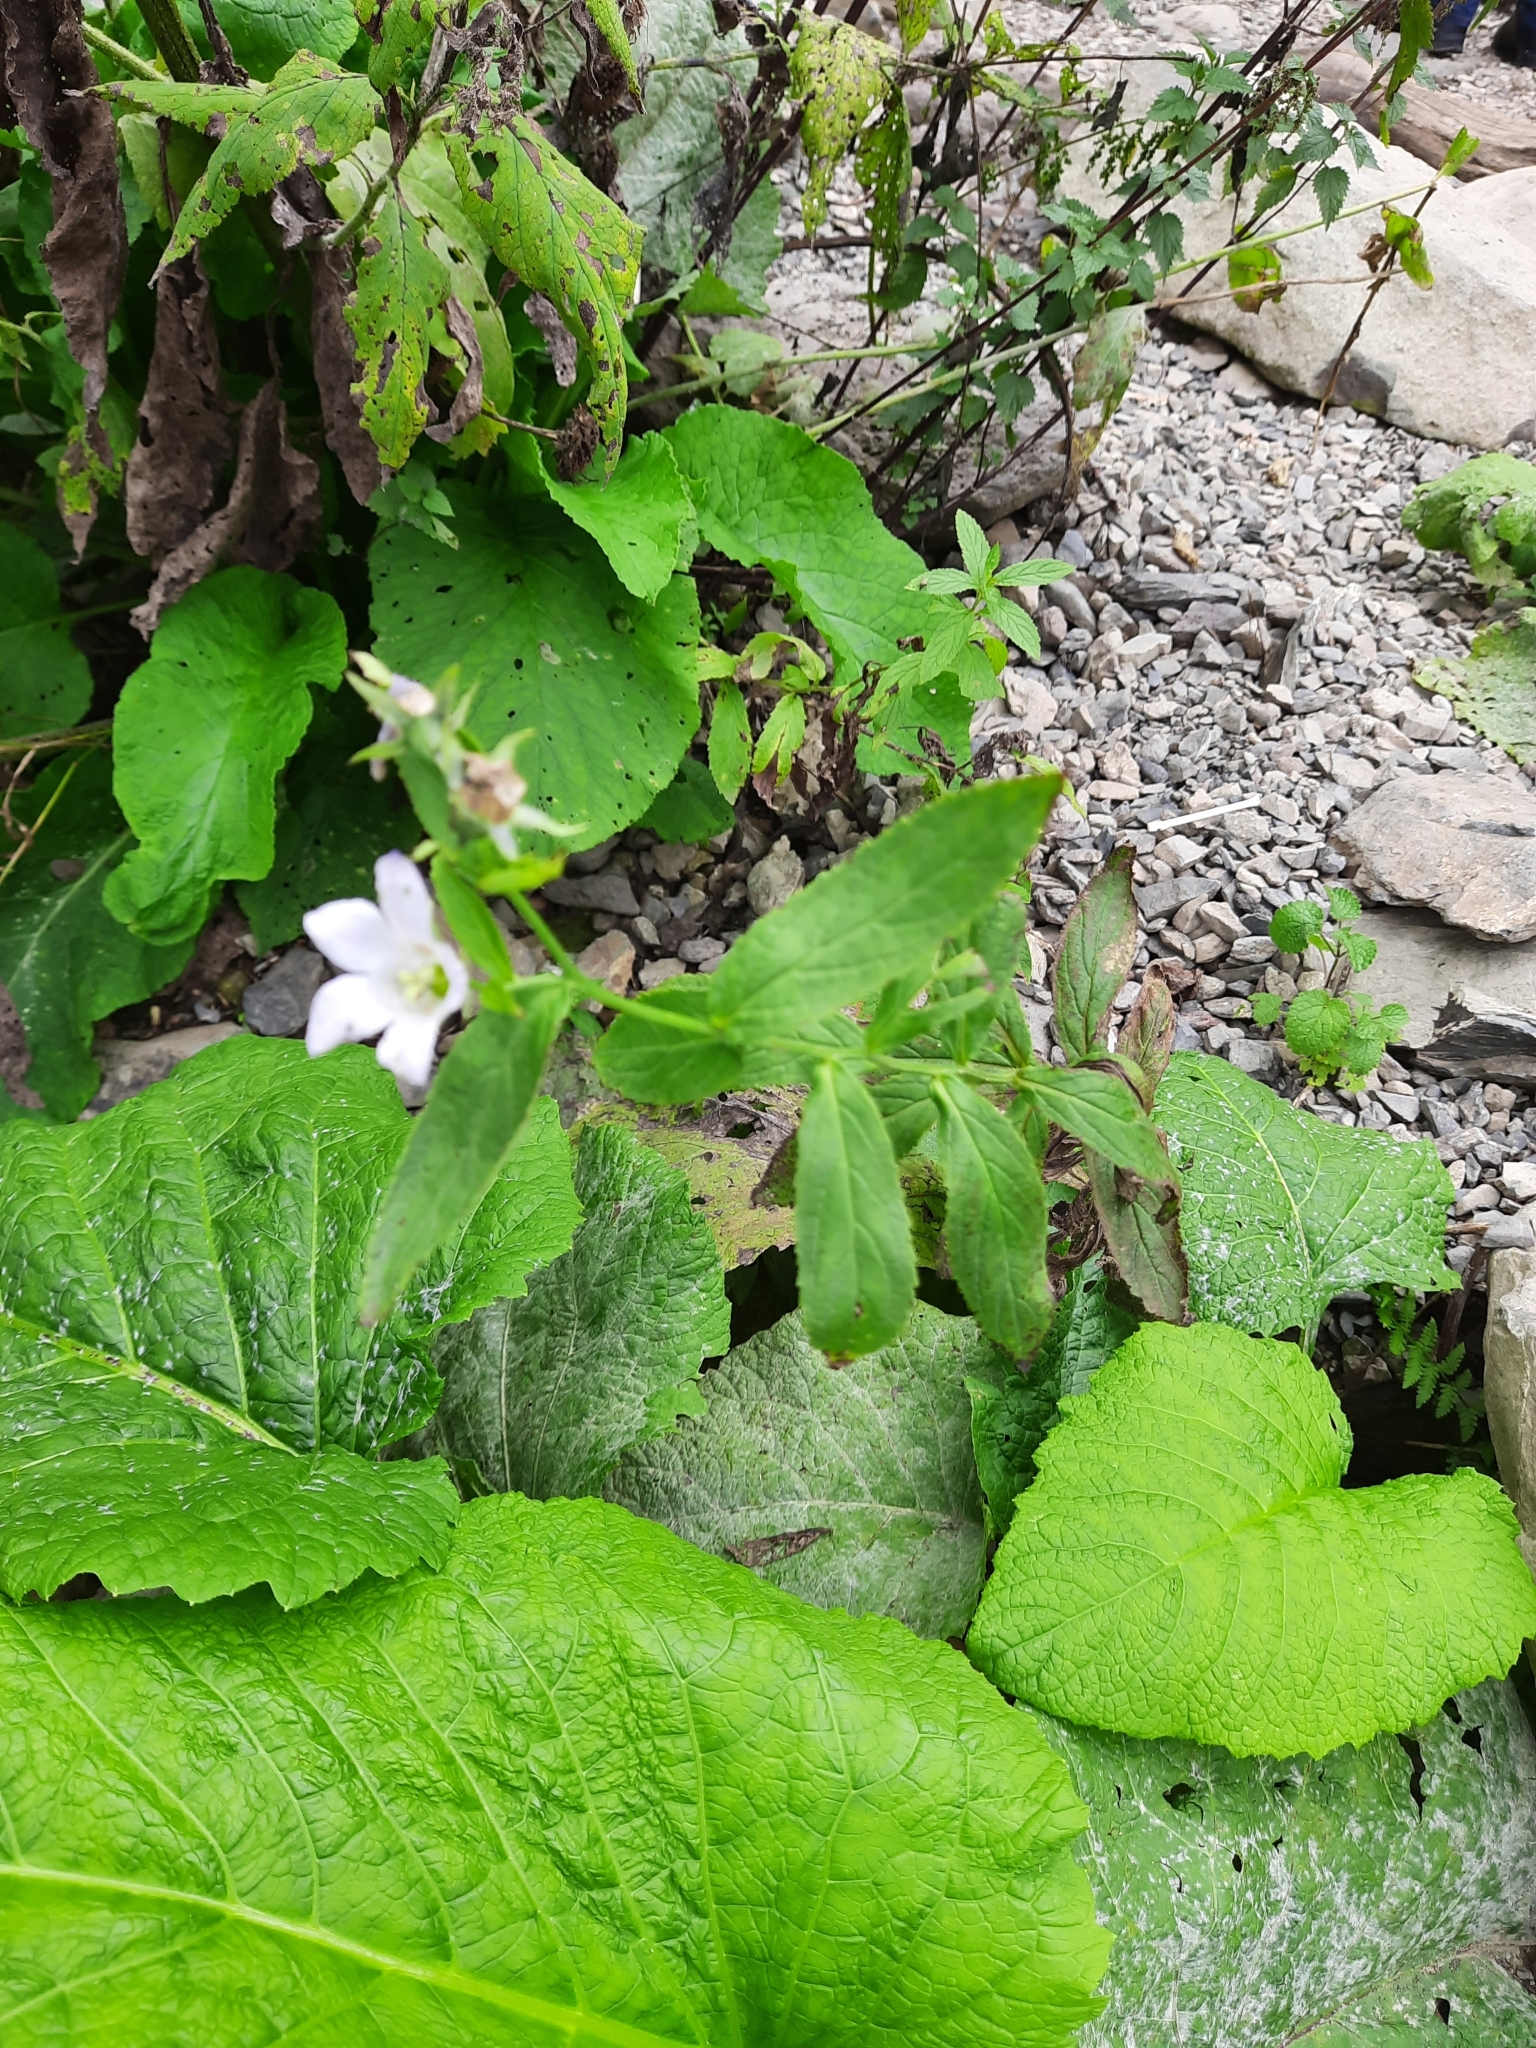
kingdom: Plantae
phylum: Tracheophyta
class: Magnoliopsida
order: Asterales
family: Campanulaceae
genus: Campanula
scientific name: Campanula lactiflora
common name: Milky bellflower
